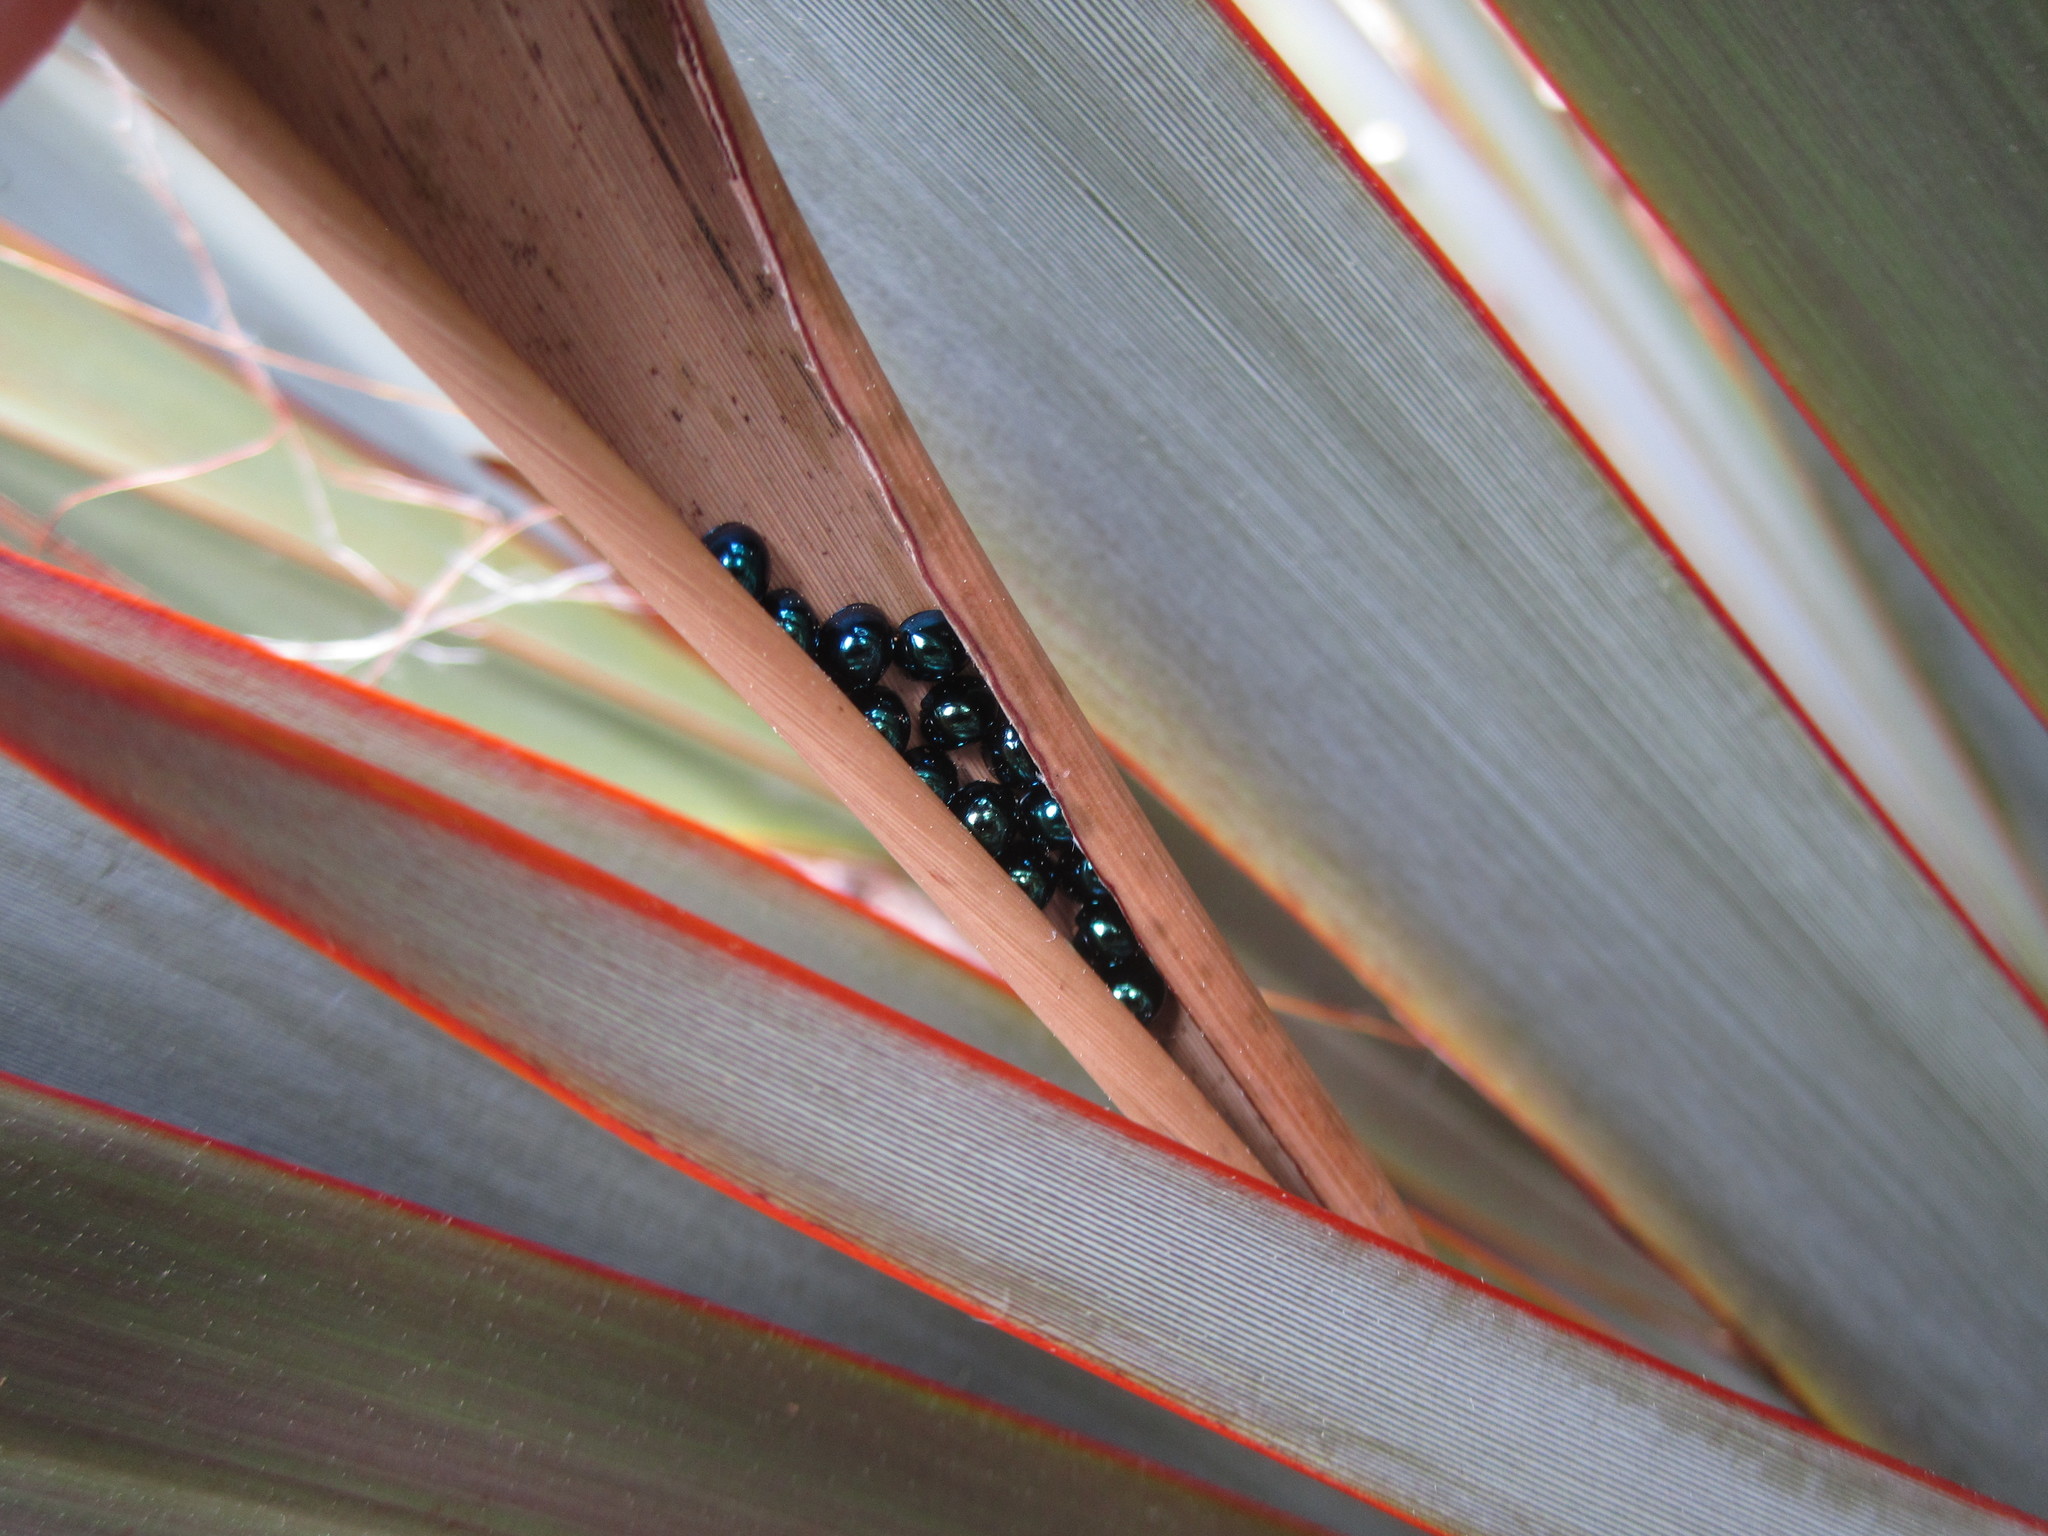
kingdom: Animalia
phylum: Arthropoda
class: Insecta
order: Coleoptera
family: Coccinellidae
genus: Halmus
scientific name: Halmus chalybeus
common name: Steel blue ladybird beetle
